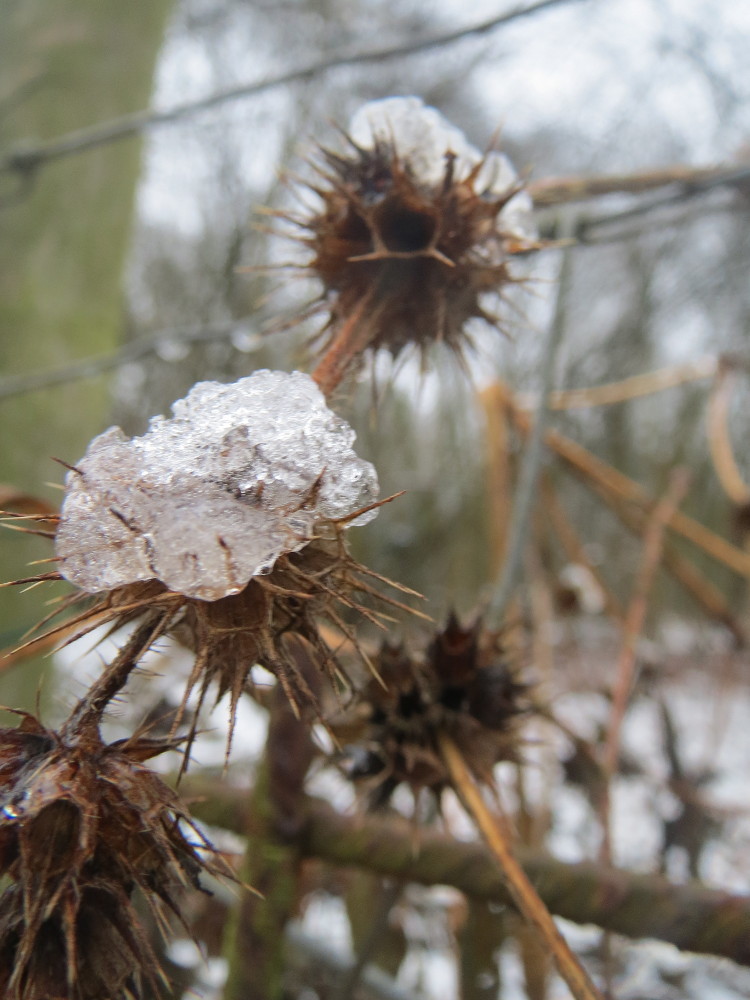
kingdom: Plantae
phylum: Tracheophyta
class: Magnoliopsida
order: Lamiales
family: Lamiaceae
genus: Galeopsis
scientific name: Galeopsis tetrahit
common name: Common hemp-nettle
